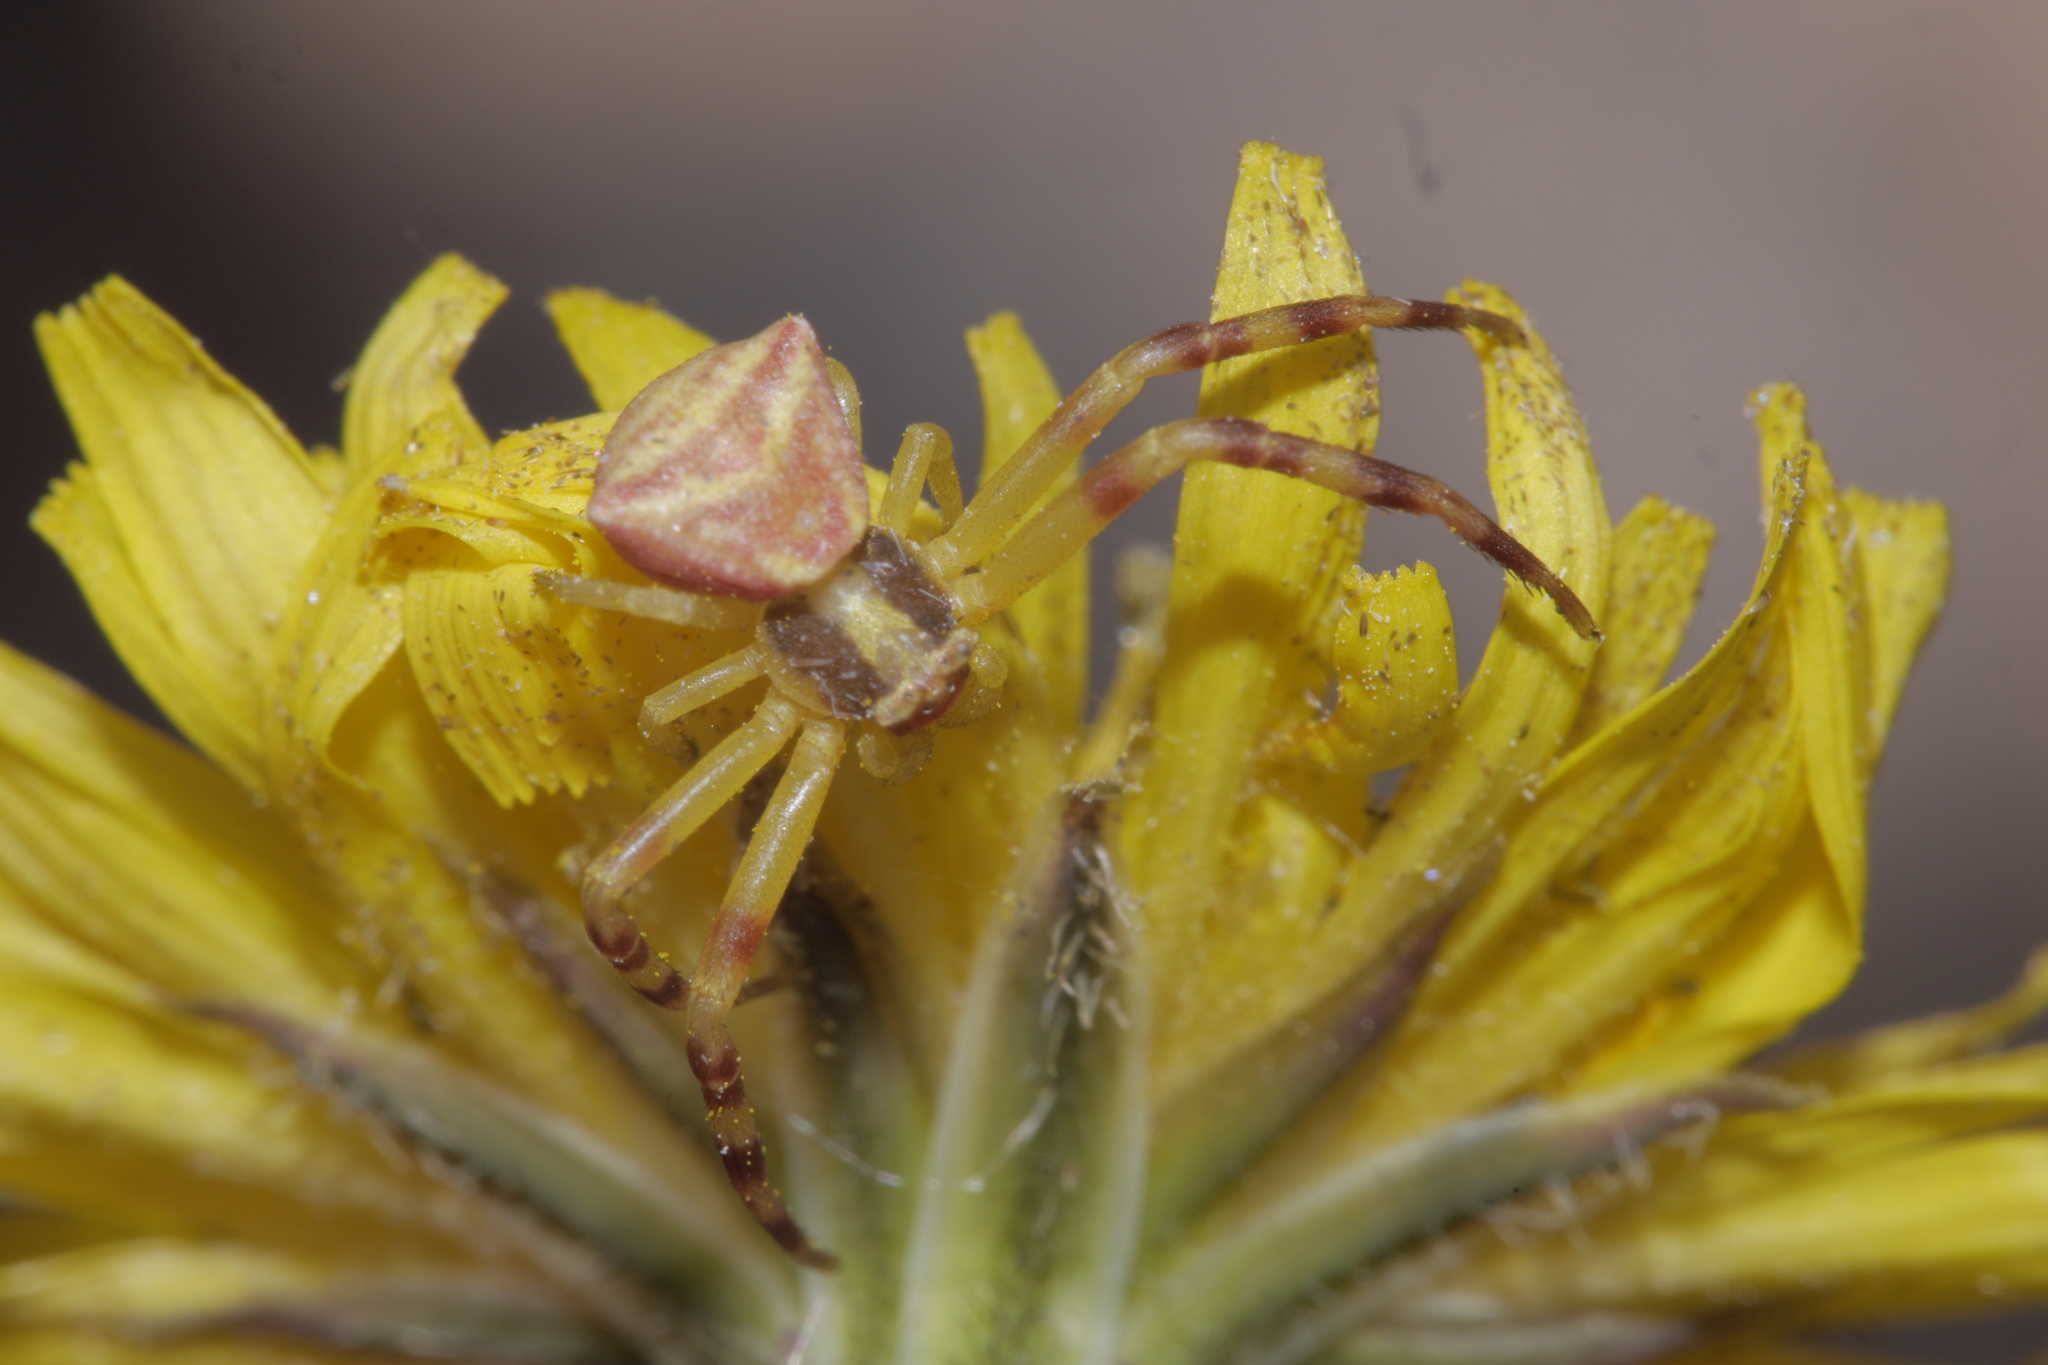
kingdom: Animalia
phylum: Arthropoda
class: Arachnida
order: Araneae
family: Thomisidae
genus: Thomisus
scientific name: Thomisus onustus
